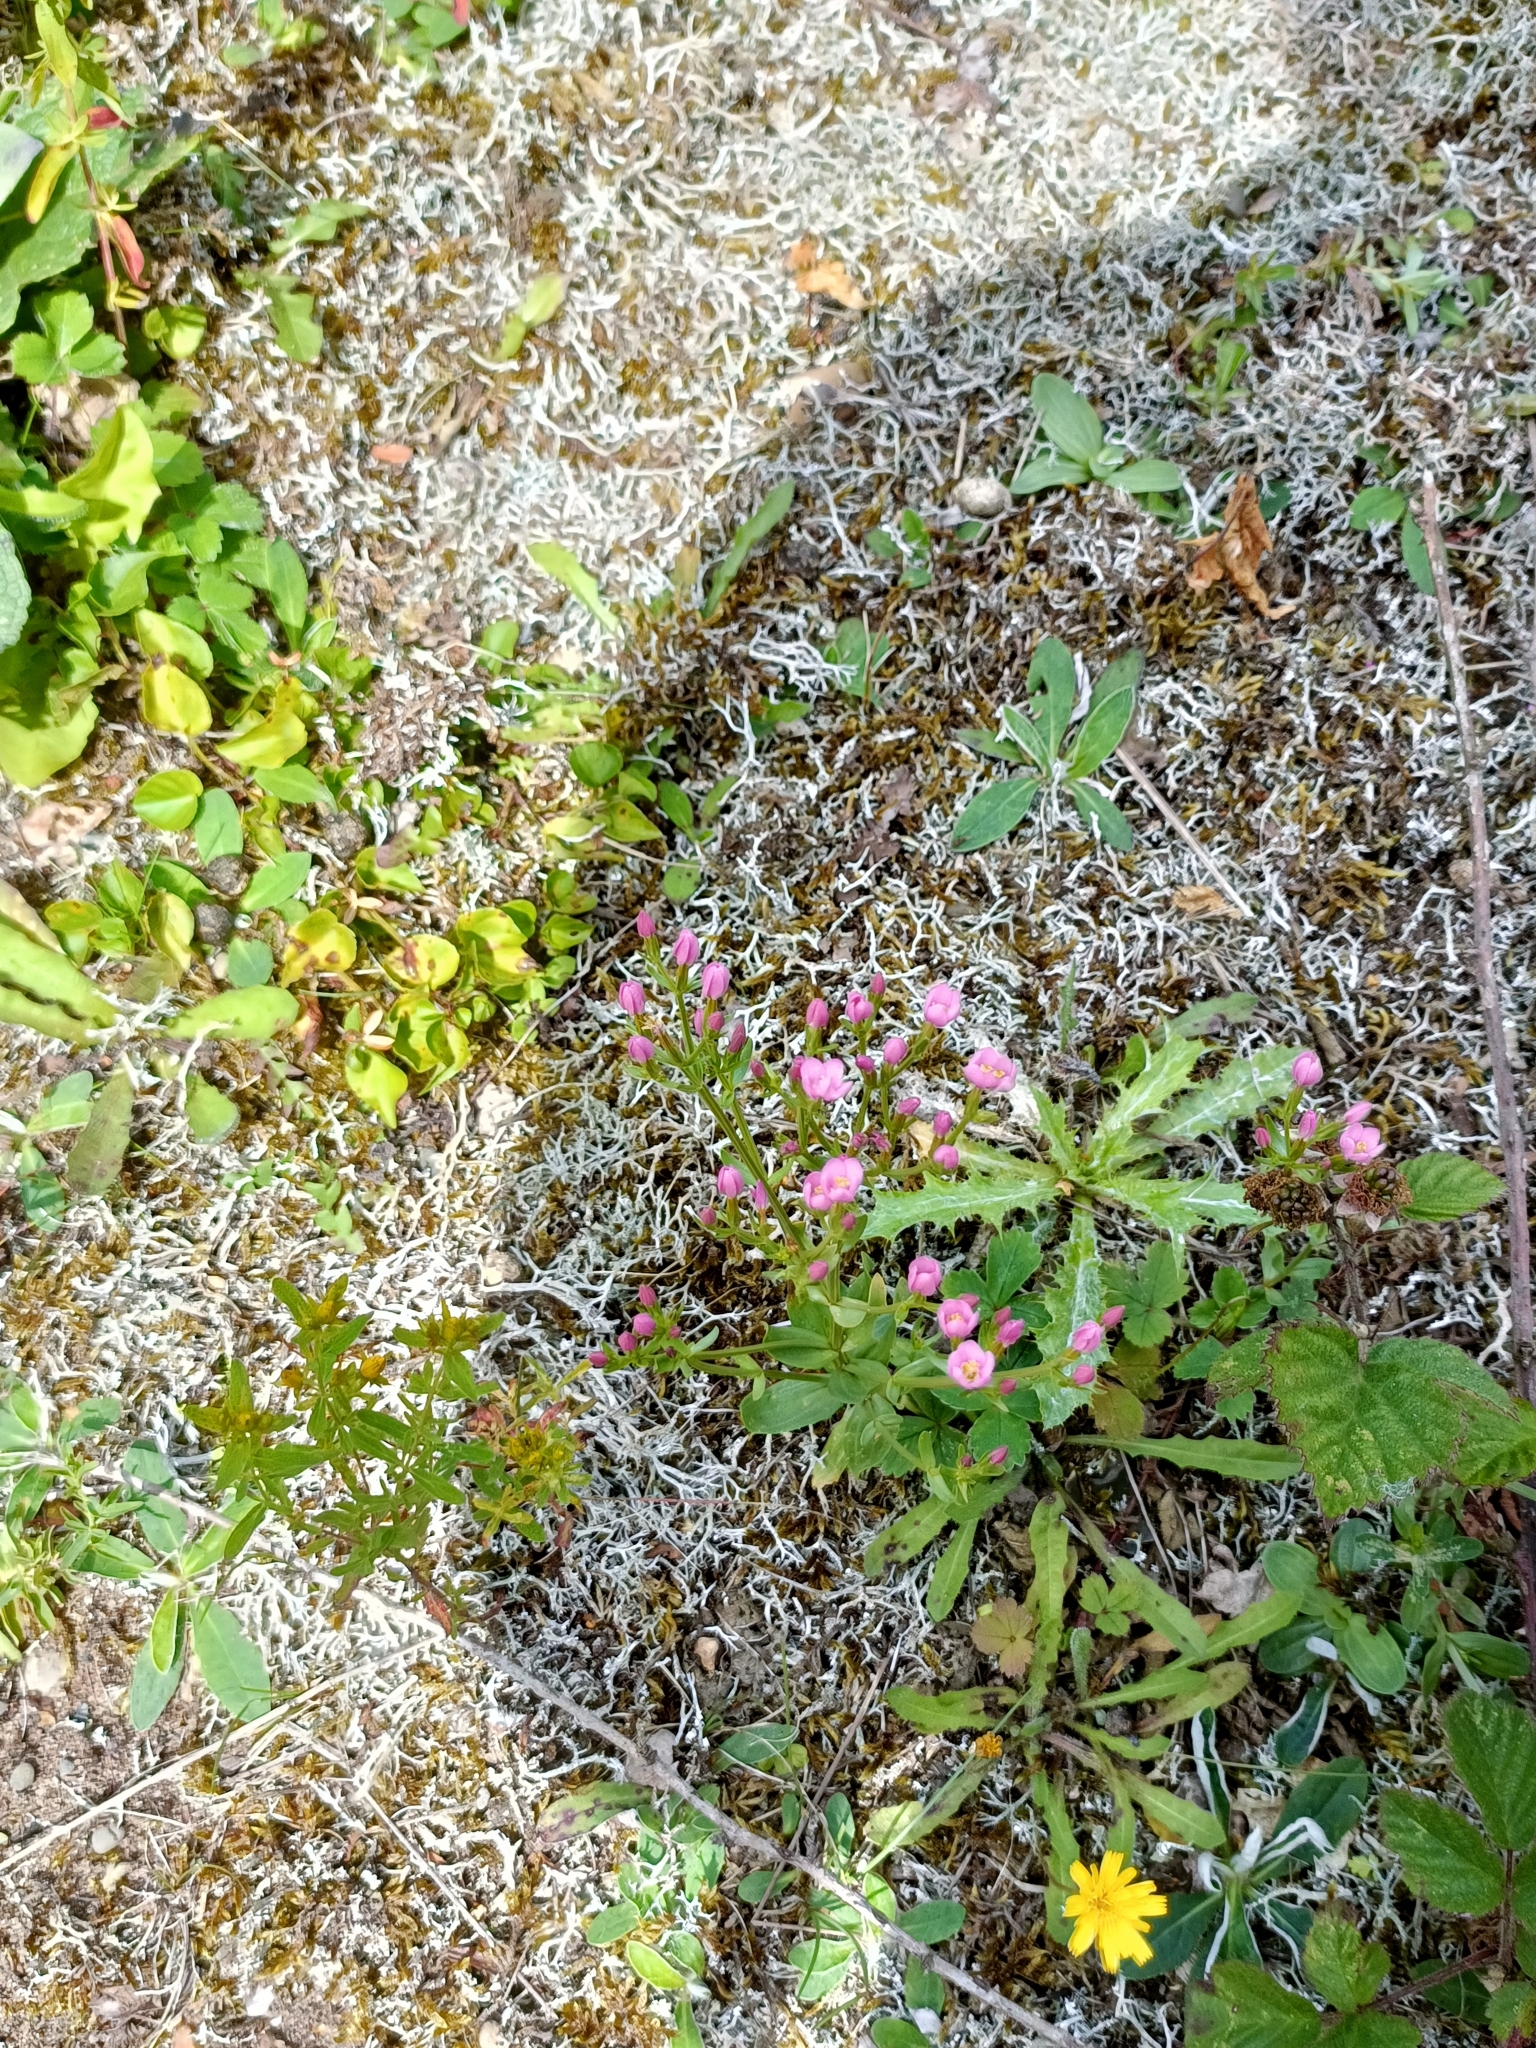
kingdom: Plantae
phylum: Tracheophyta
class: Magnoliopsida
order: Gentianales
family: Gentianaceae
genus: Centaurium
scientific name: Centaurium erythraea
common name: Common centaury
